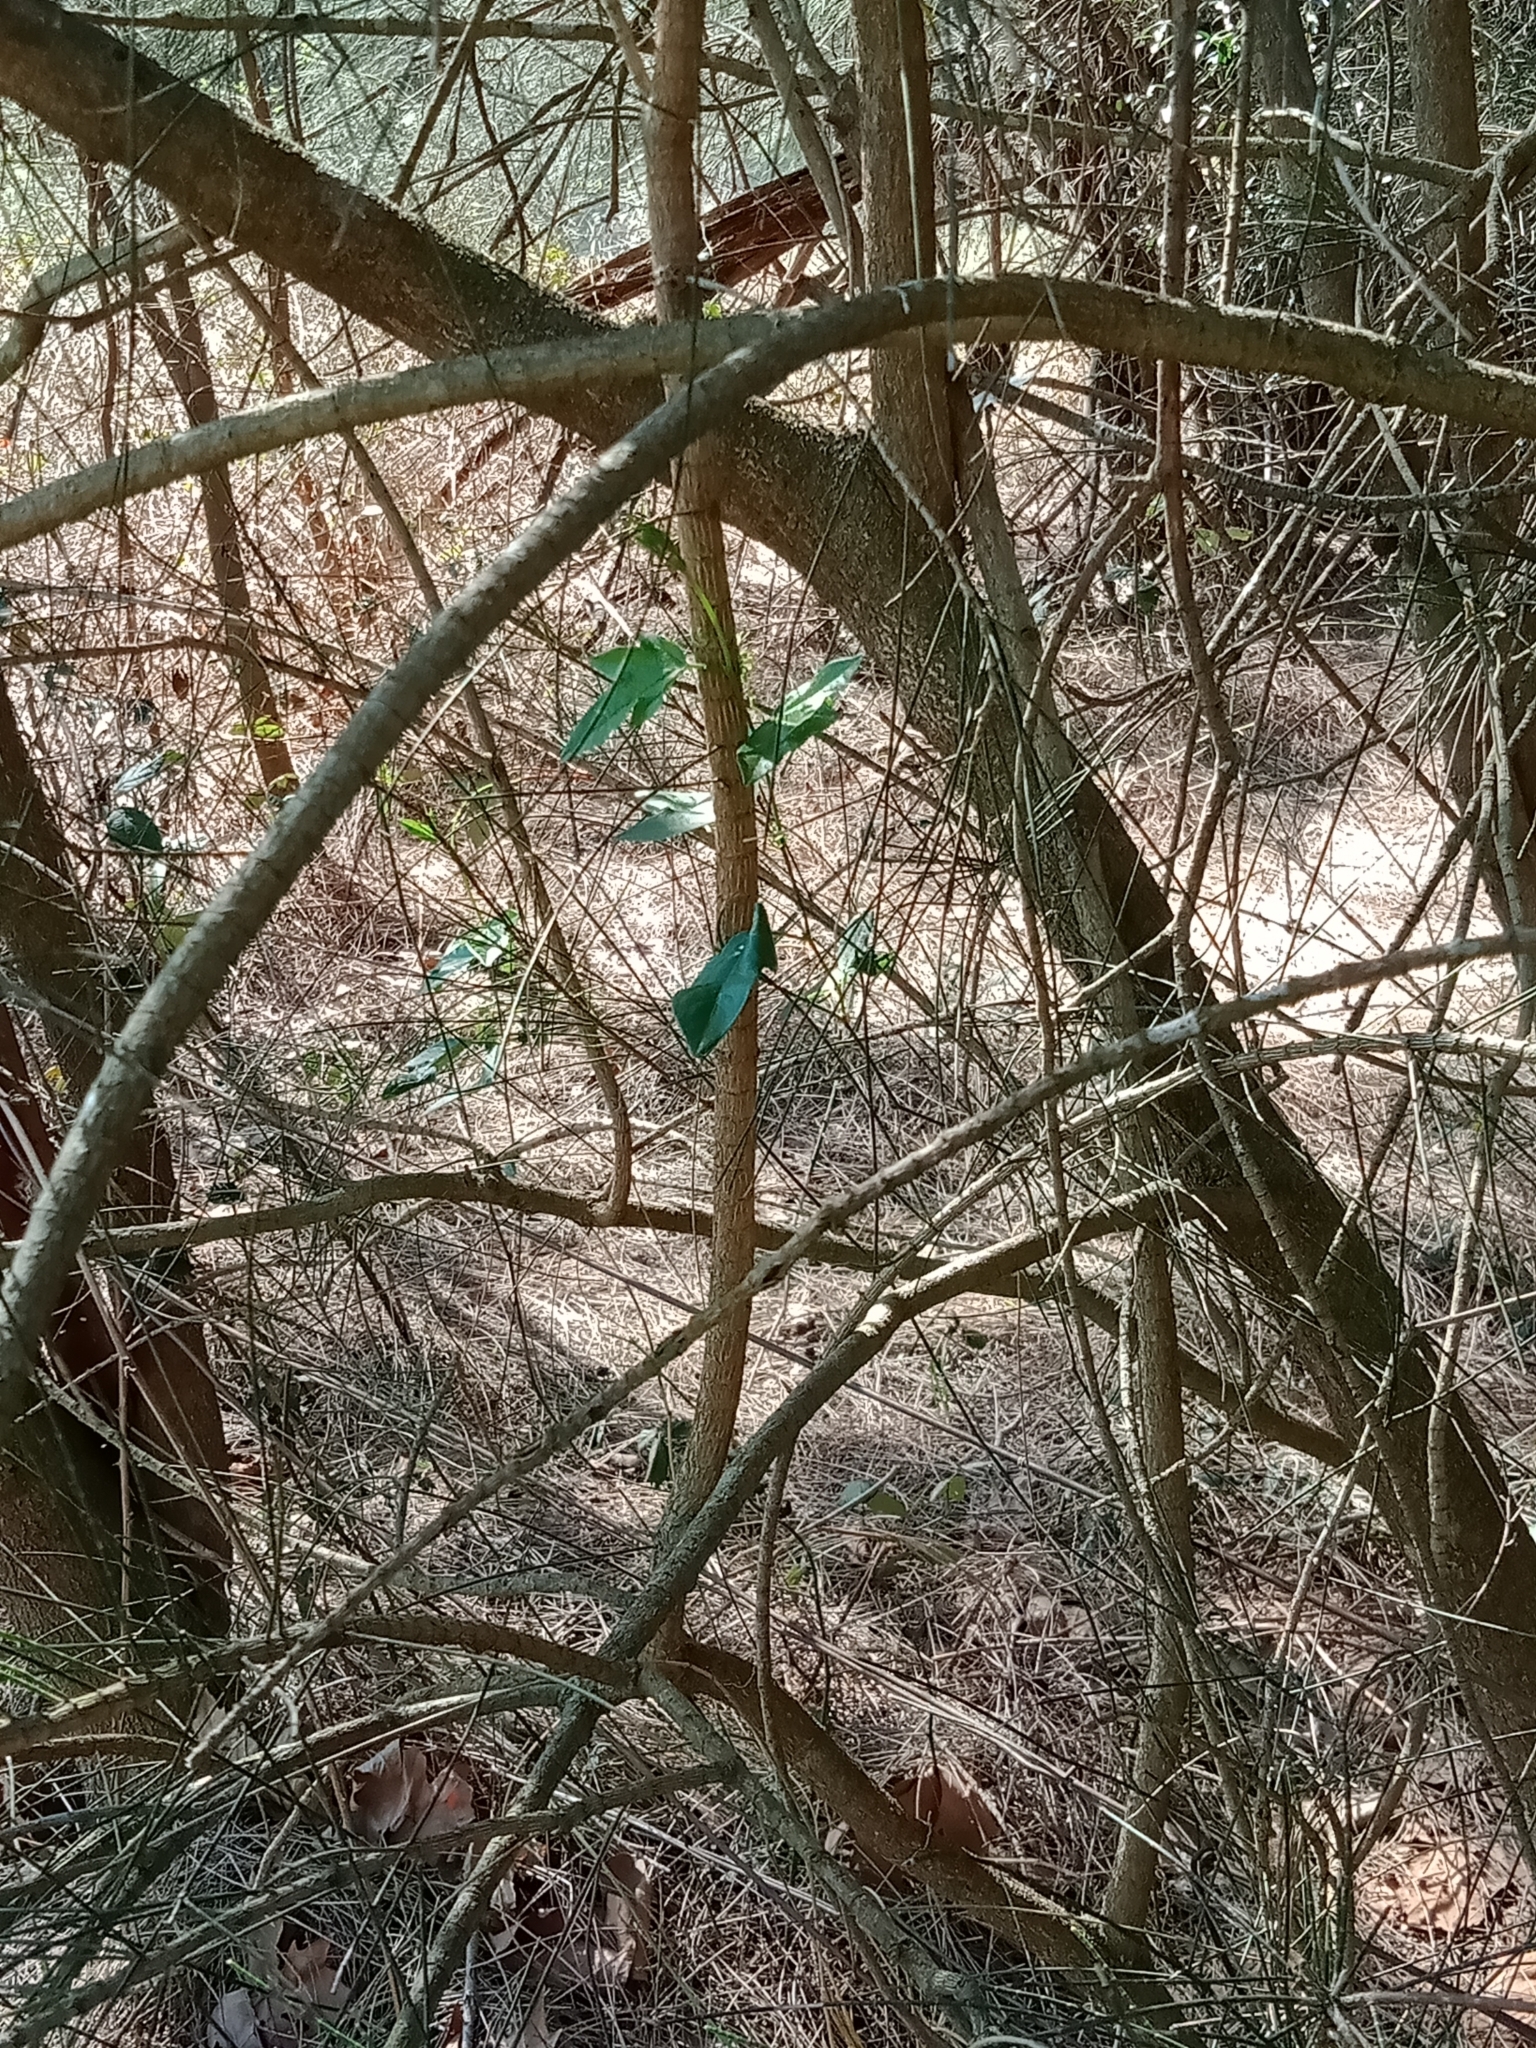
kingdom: Plantae
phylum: Tracheophyta
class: Magnoliopsida
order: Malpighiales
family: Passifloraceae
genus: Passiflora
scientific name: Passiflora suberosa
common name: Wild passionfruit
